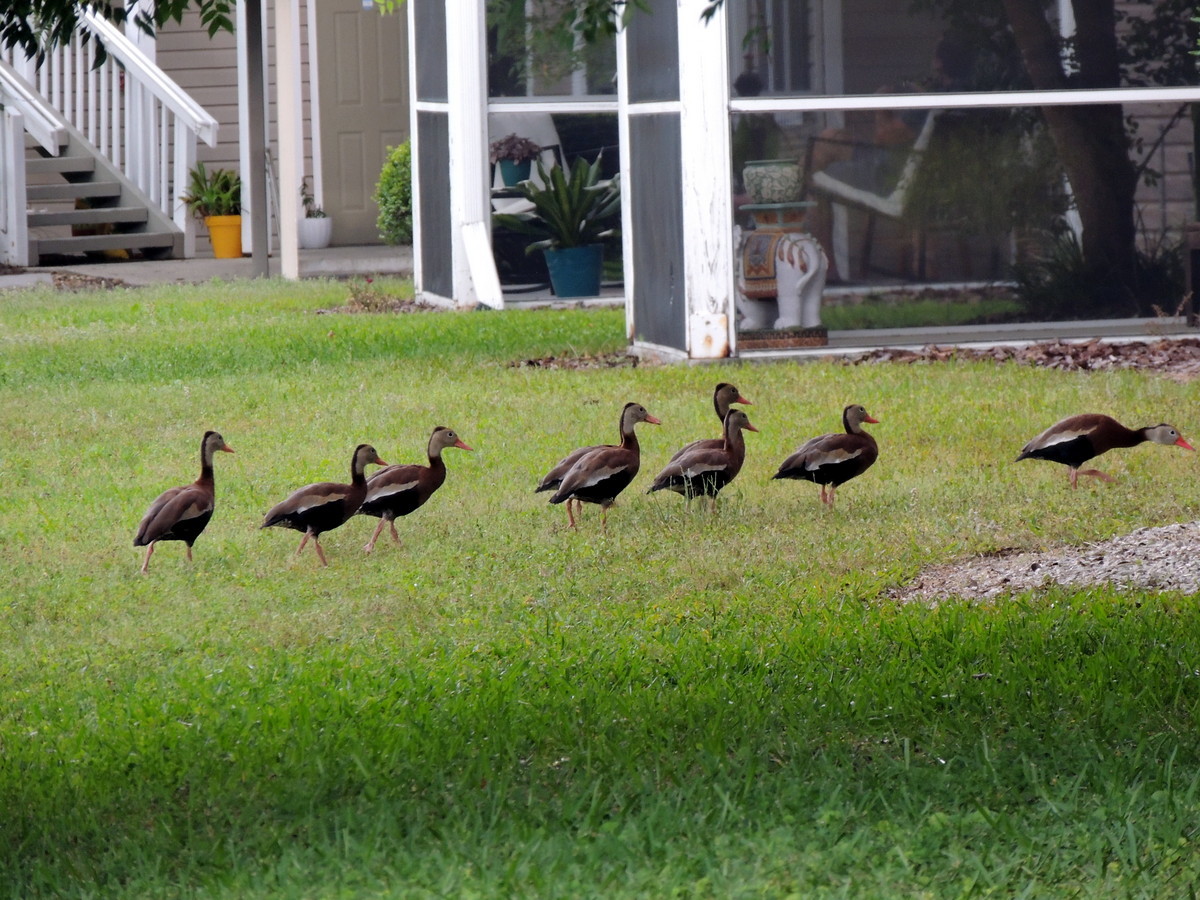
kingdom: Animalia
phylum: Chordata
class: Aves
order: Anseriformes
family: Anatidae
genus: Dendrocygna
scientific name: Dendrocygna autumnalis
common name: Black-bellied whistling duck
